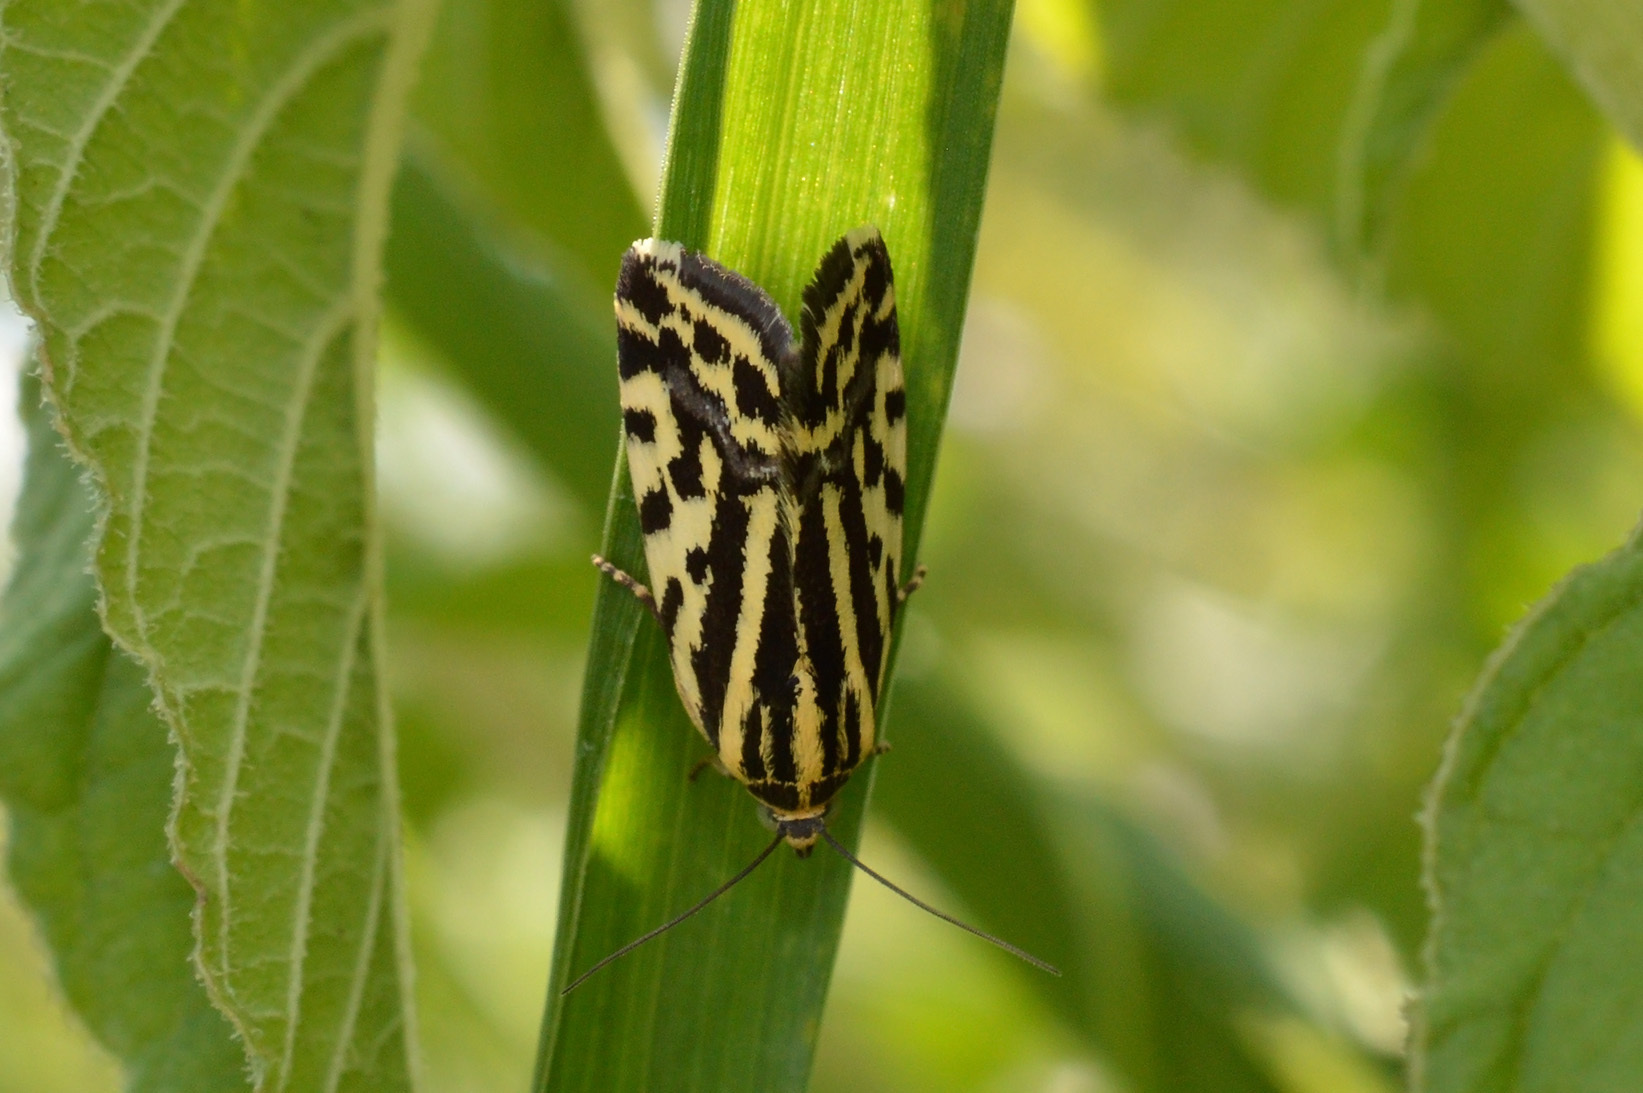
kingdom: Animalia
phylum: Arthropoda
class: Insecta
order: Lepidoptera
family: Noctuidae
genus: Acontia
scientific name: Acontia trabealis
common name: Spotted sulphur
